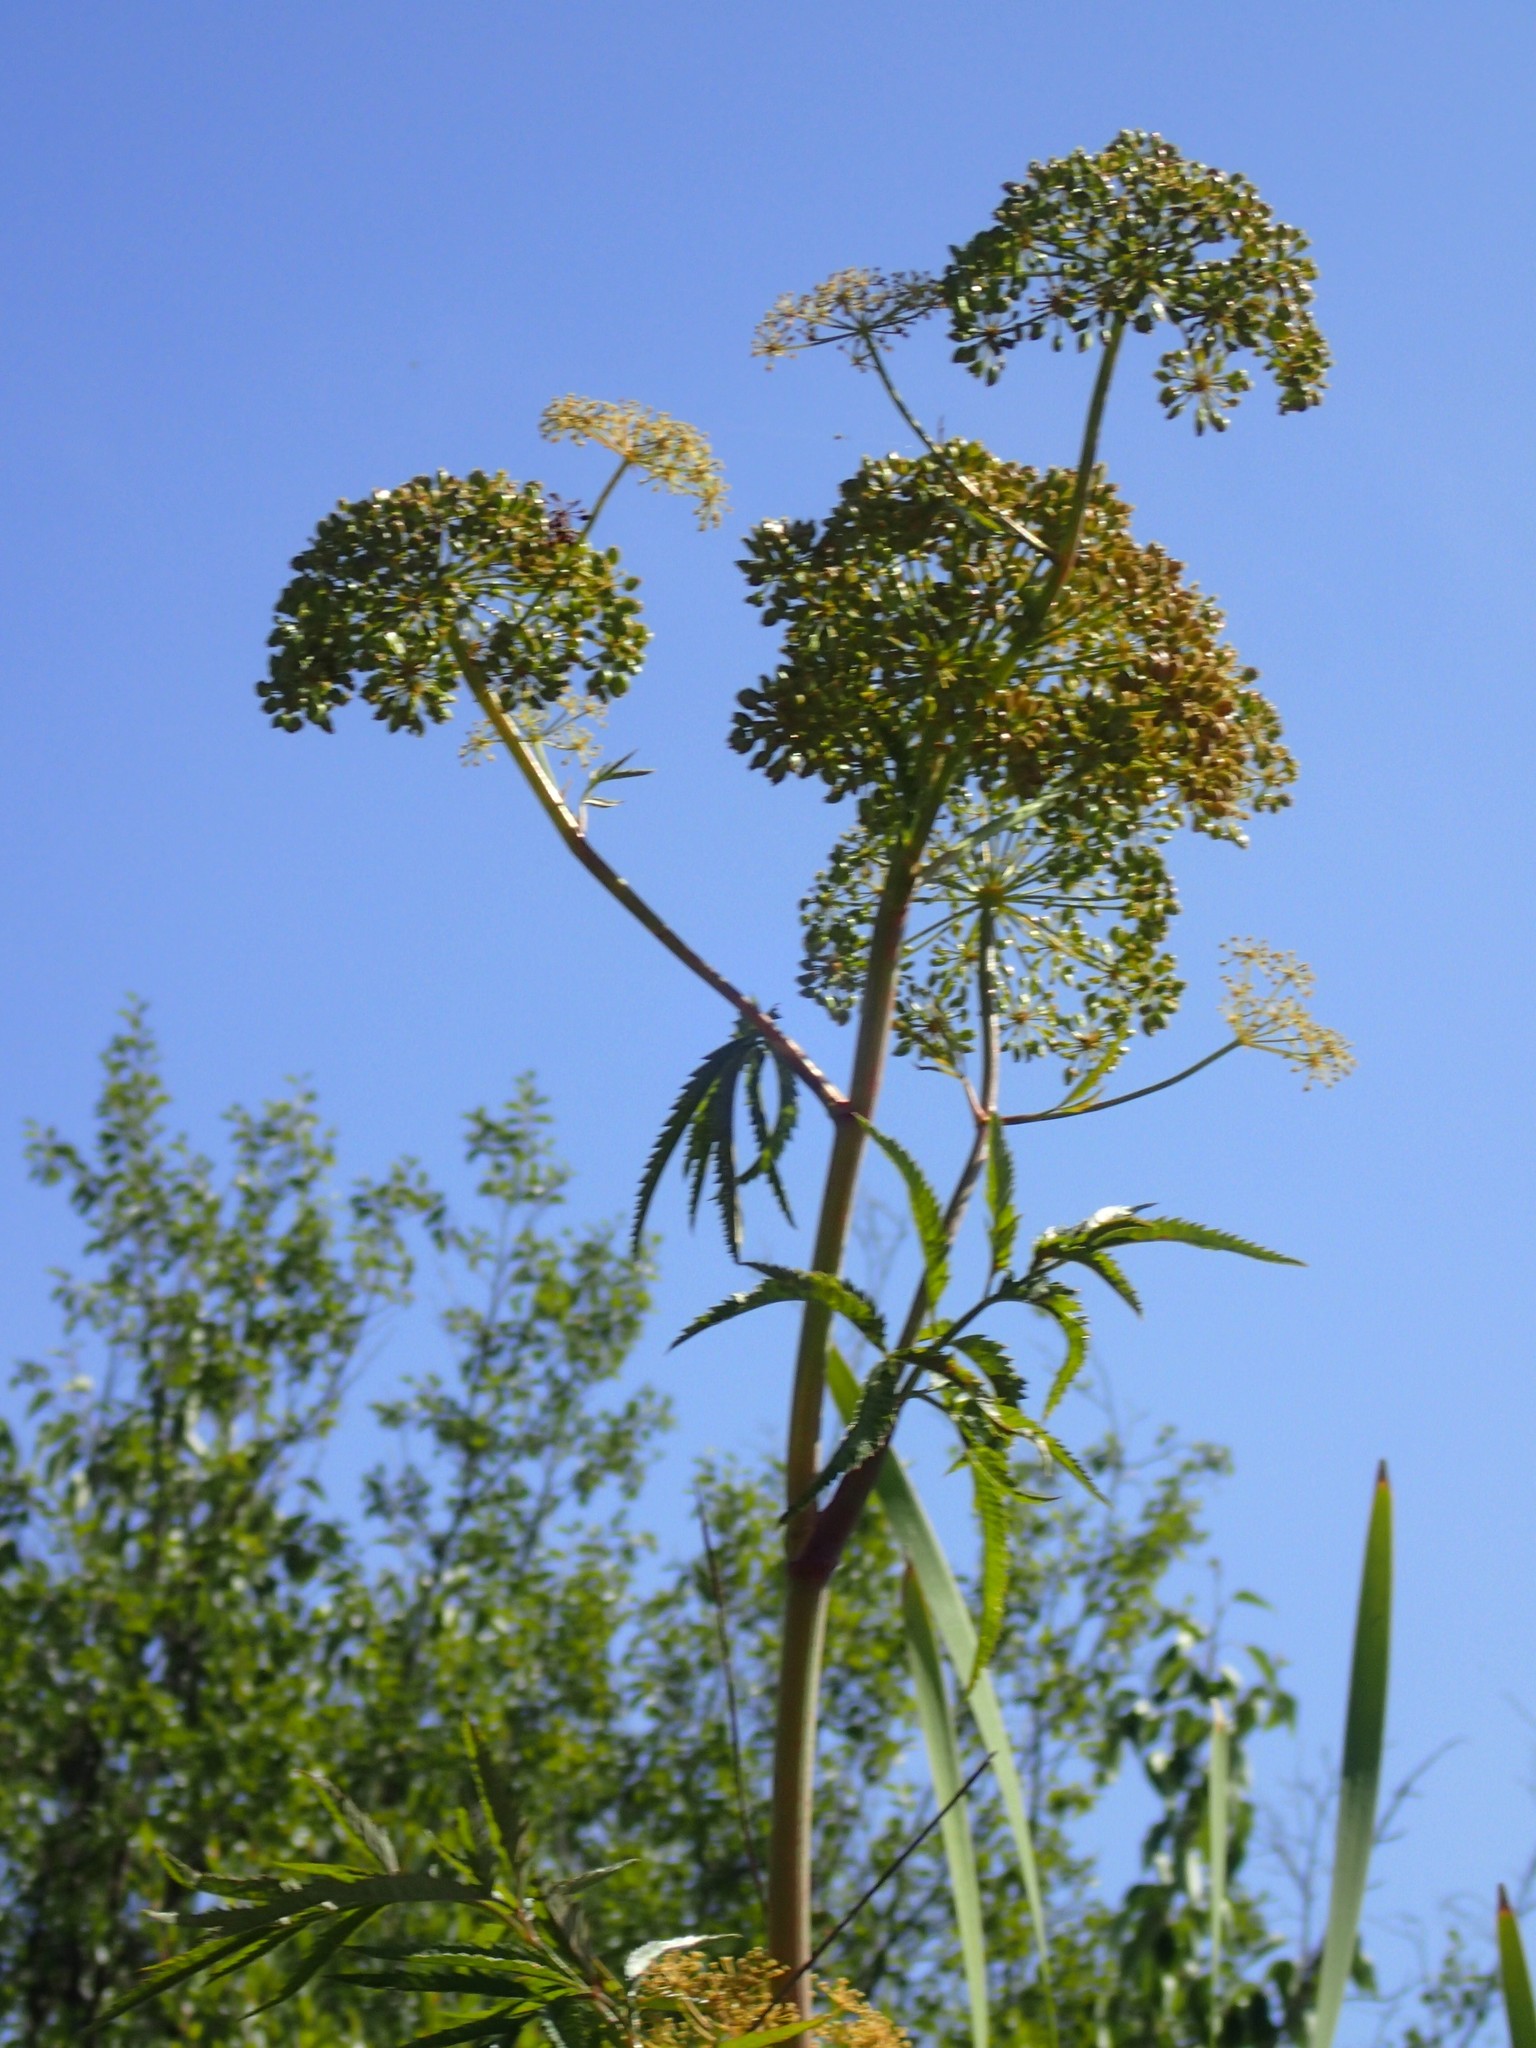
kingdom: Plantae
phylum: Tracheophyta
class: Magnoliopsida
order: Apiales
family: Apiaceae
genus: Cicuta
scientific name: Cicuta maculata
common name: Spotted cowbane
